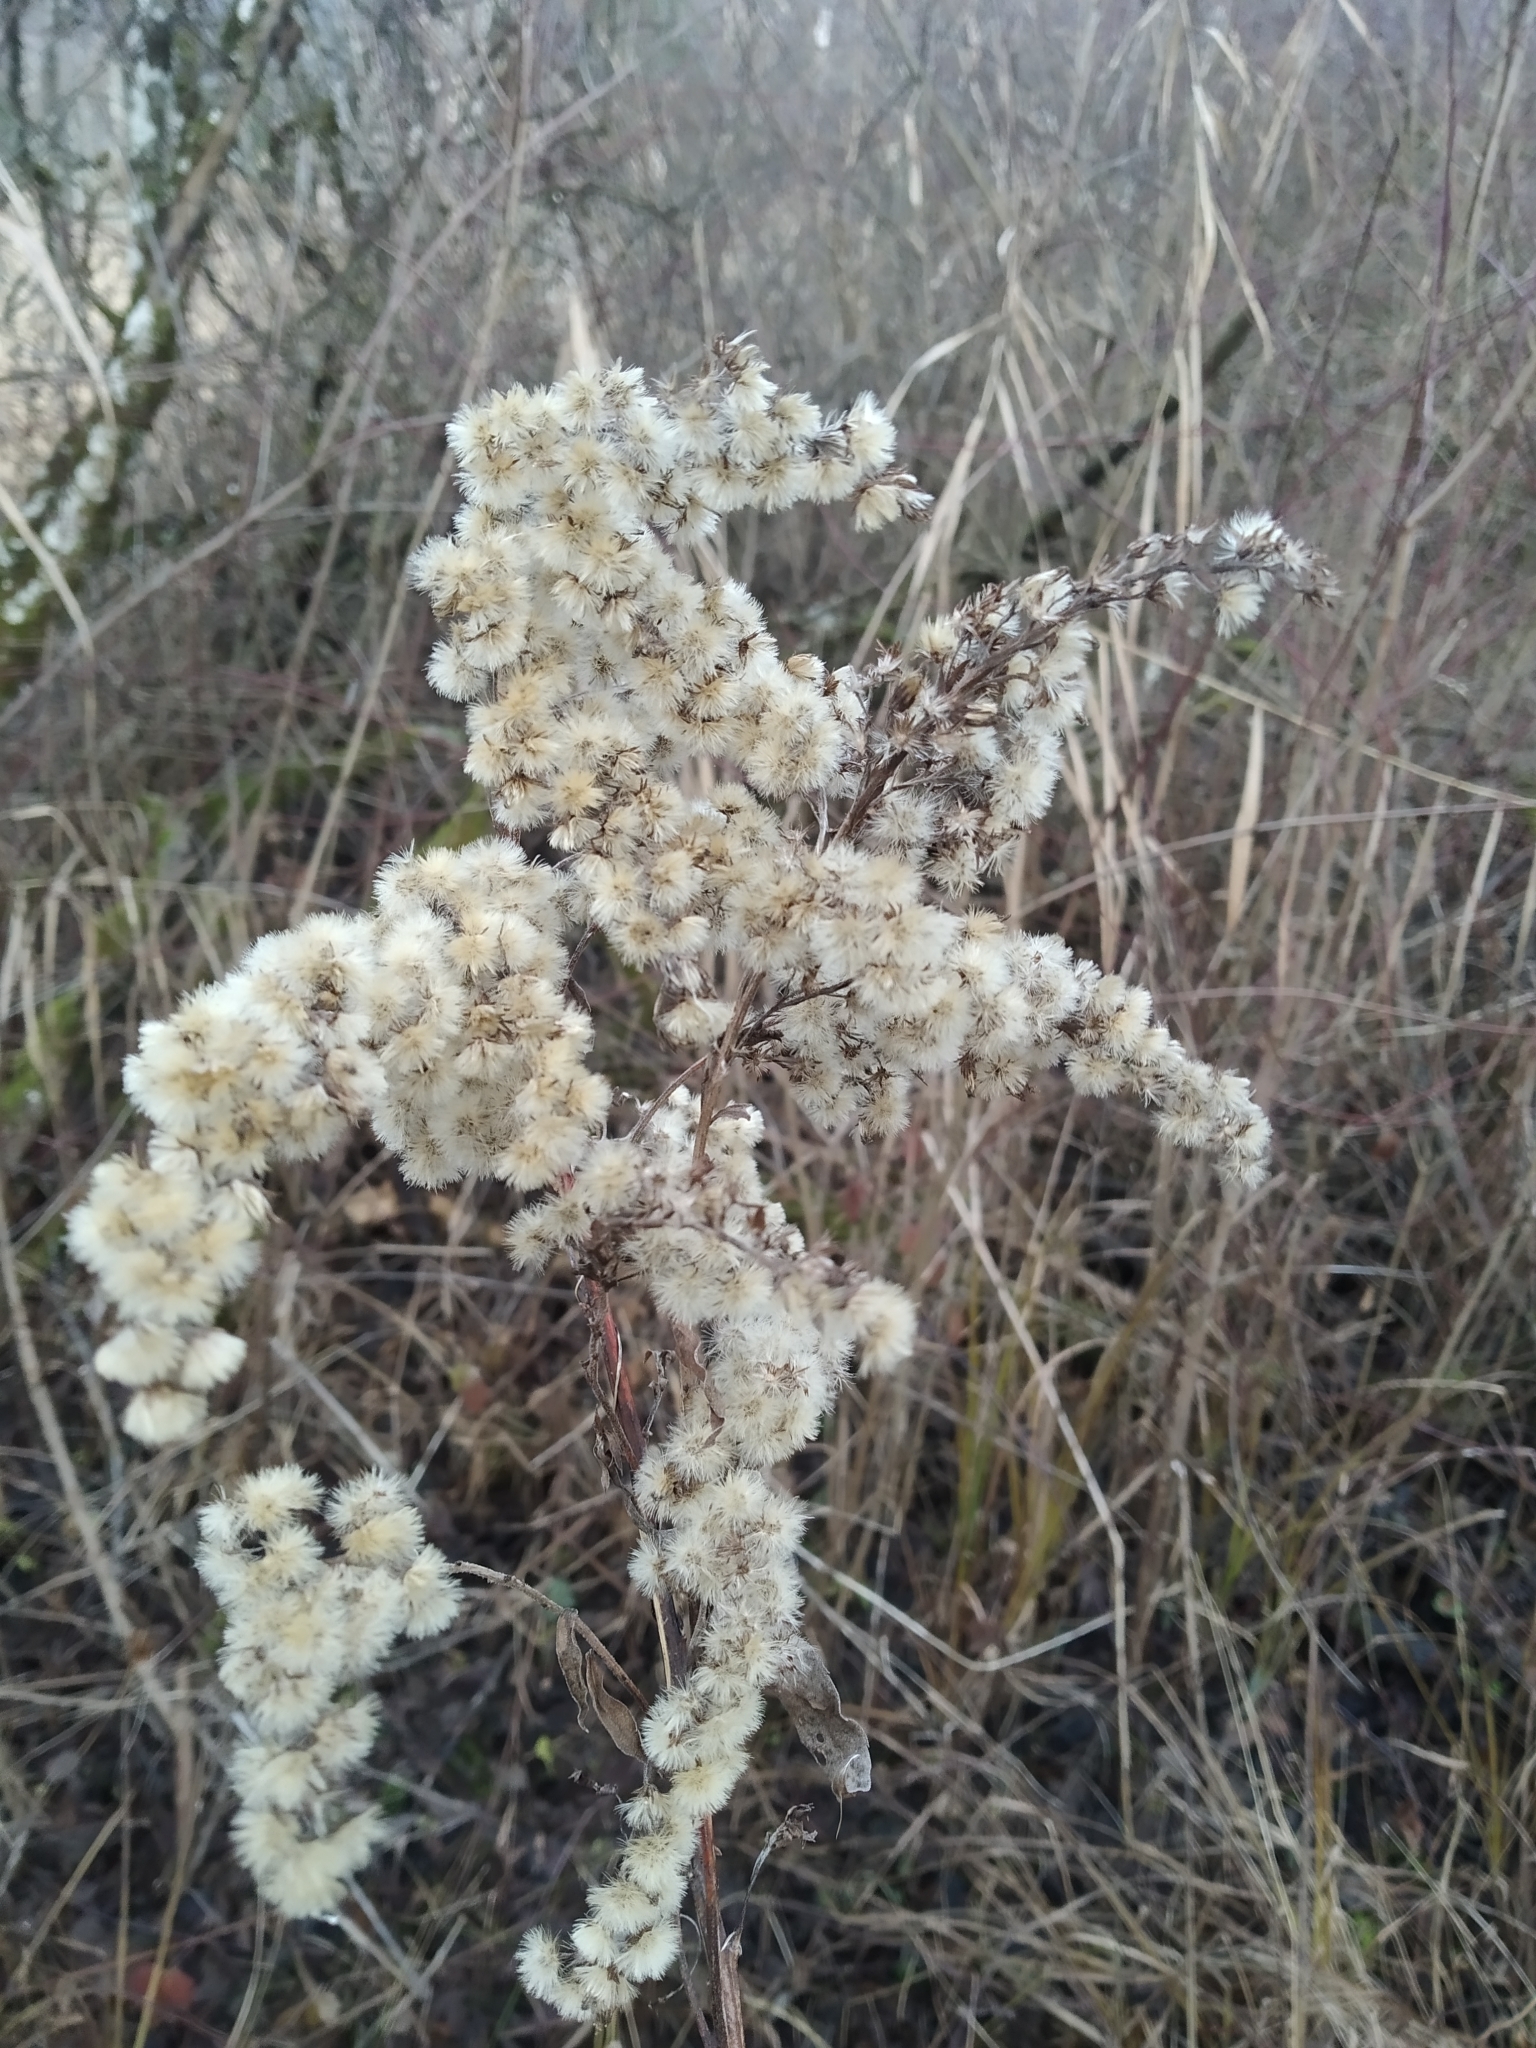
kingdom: Plantae
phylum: Tracheophyta
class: Magnoliopsida
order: Asterales
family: Asteraceae
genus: Solidago
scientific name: Solidago gigantea
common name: Giant goldenrod
